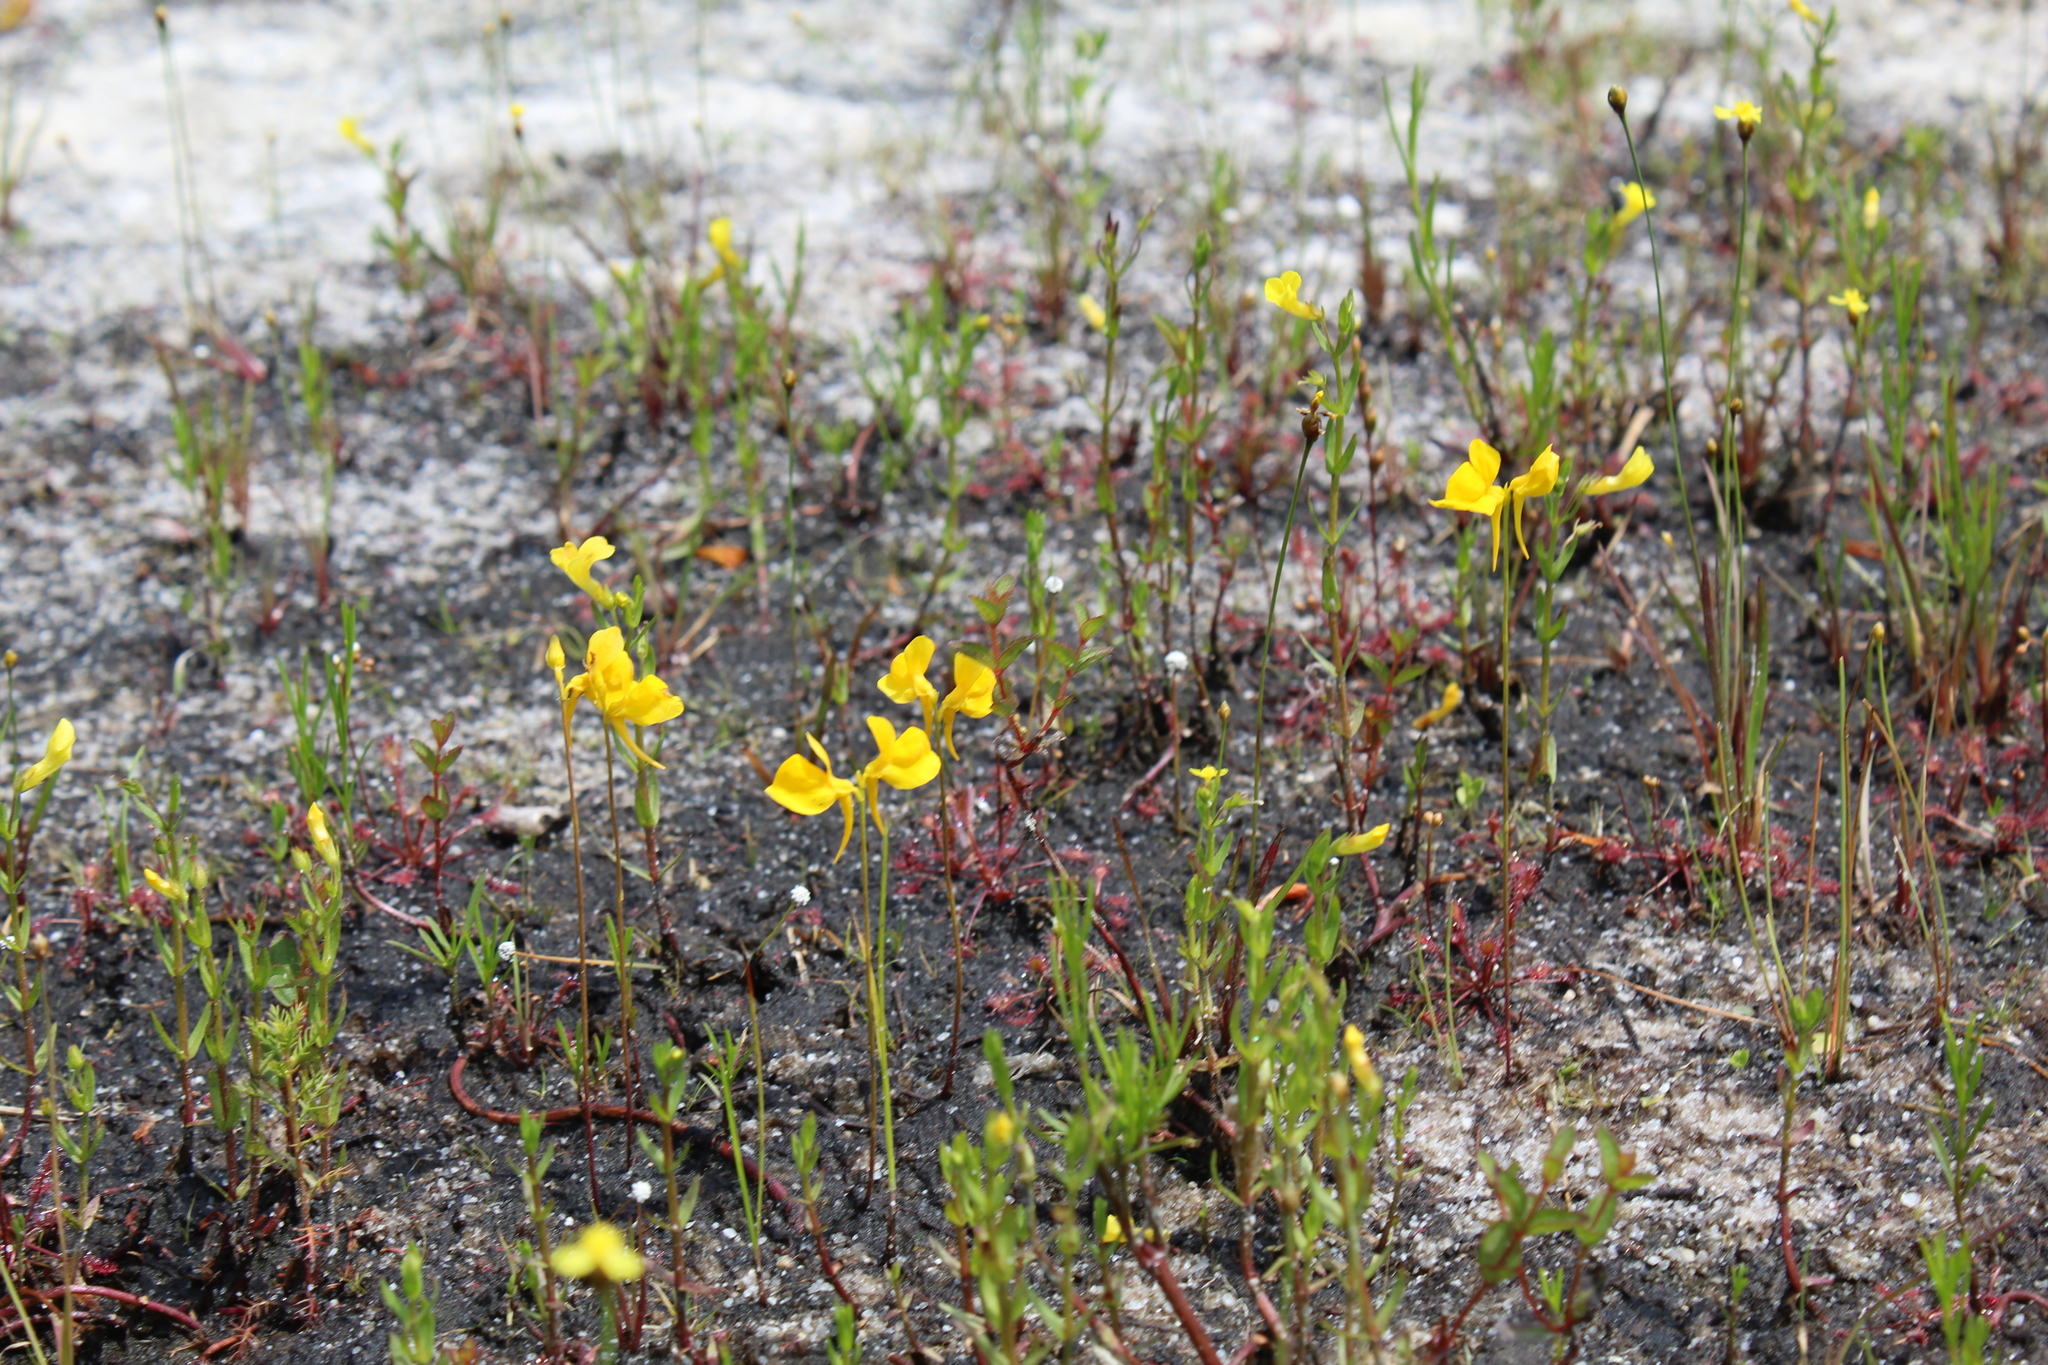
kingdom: Plantae
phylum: Tracheophyta
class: Magnoliopsida
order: Lamiales
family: Lentibulariaceae
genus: Utricularia
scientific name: Utricularia cornuta
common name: Horned bladderwort
